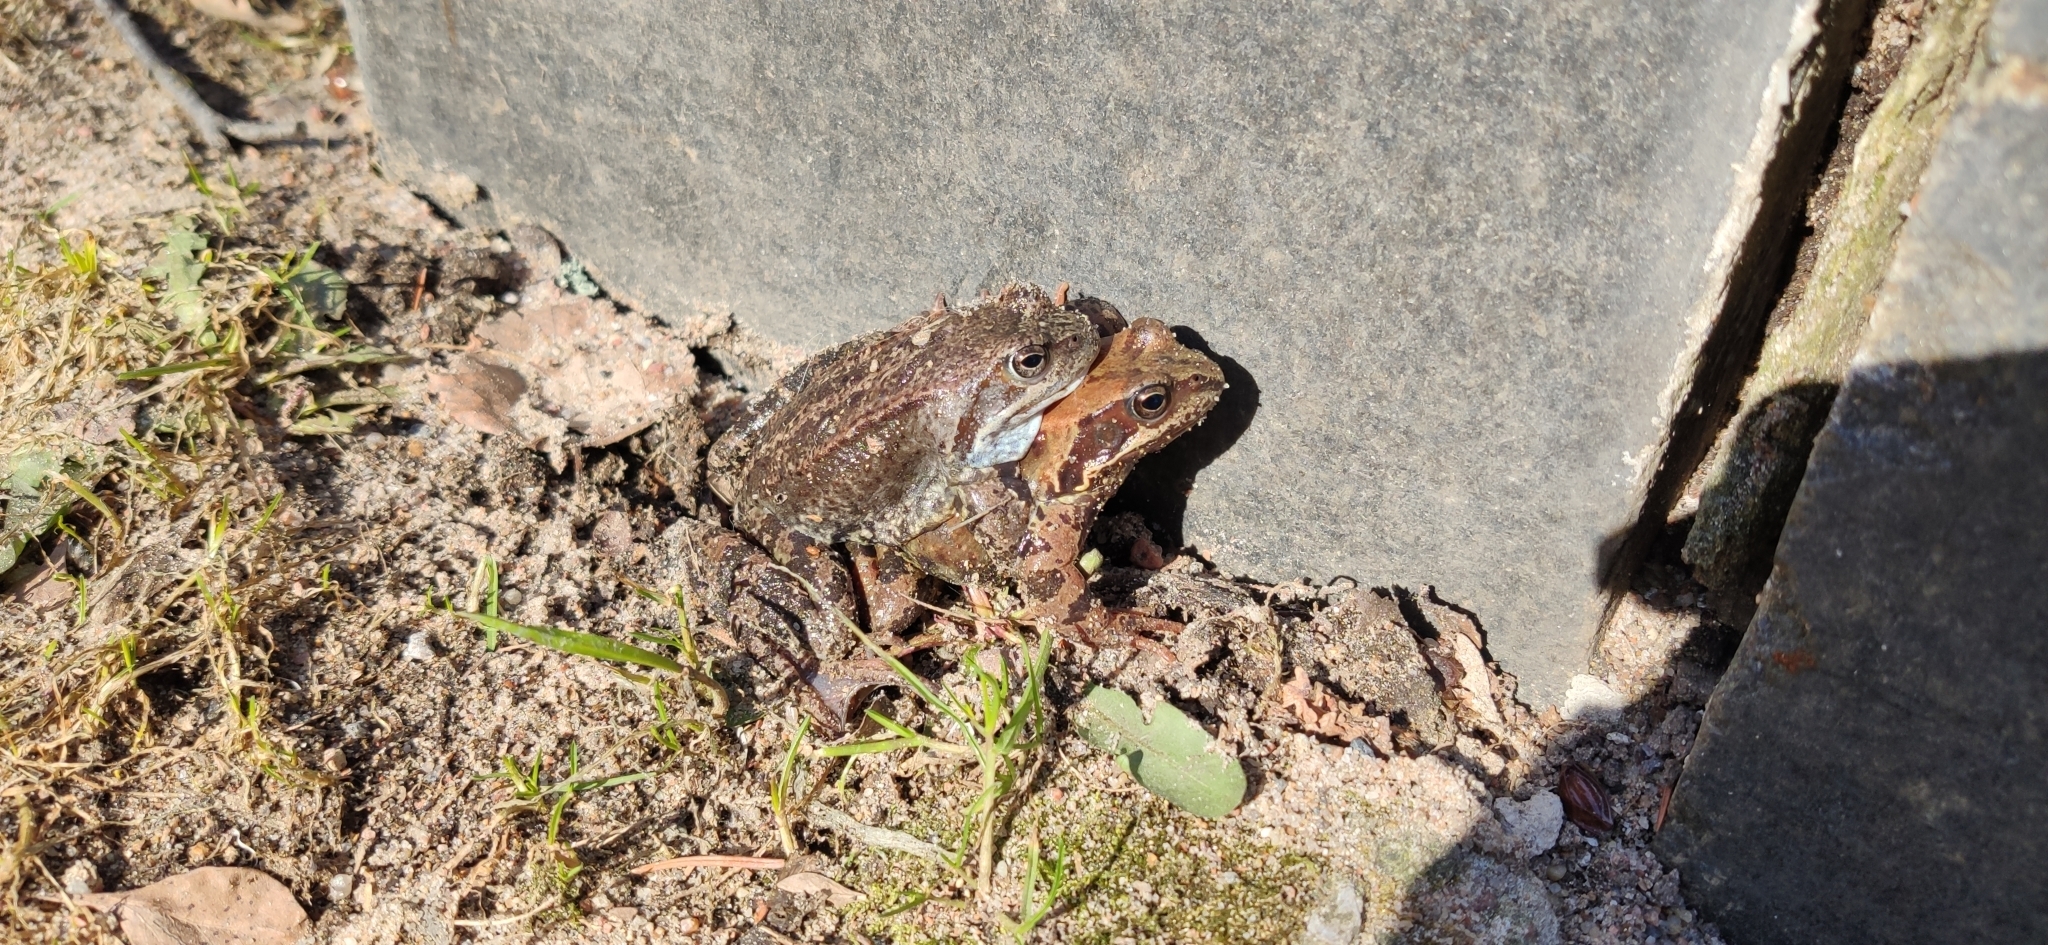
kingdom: Animalia
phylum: Chordata
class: Amphibia
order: Anura
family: Ranidae
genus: Rana
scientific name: Rana temporaria
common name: Common frog
